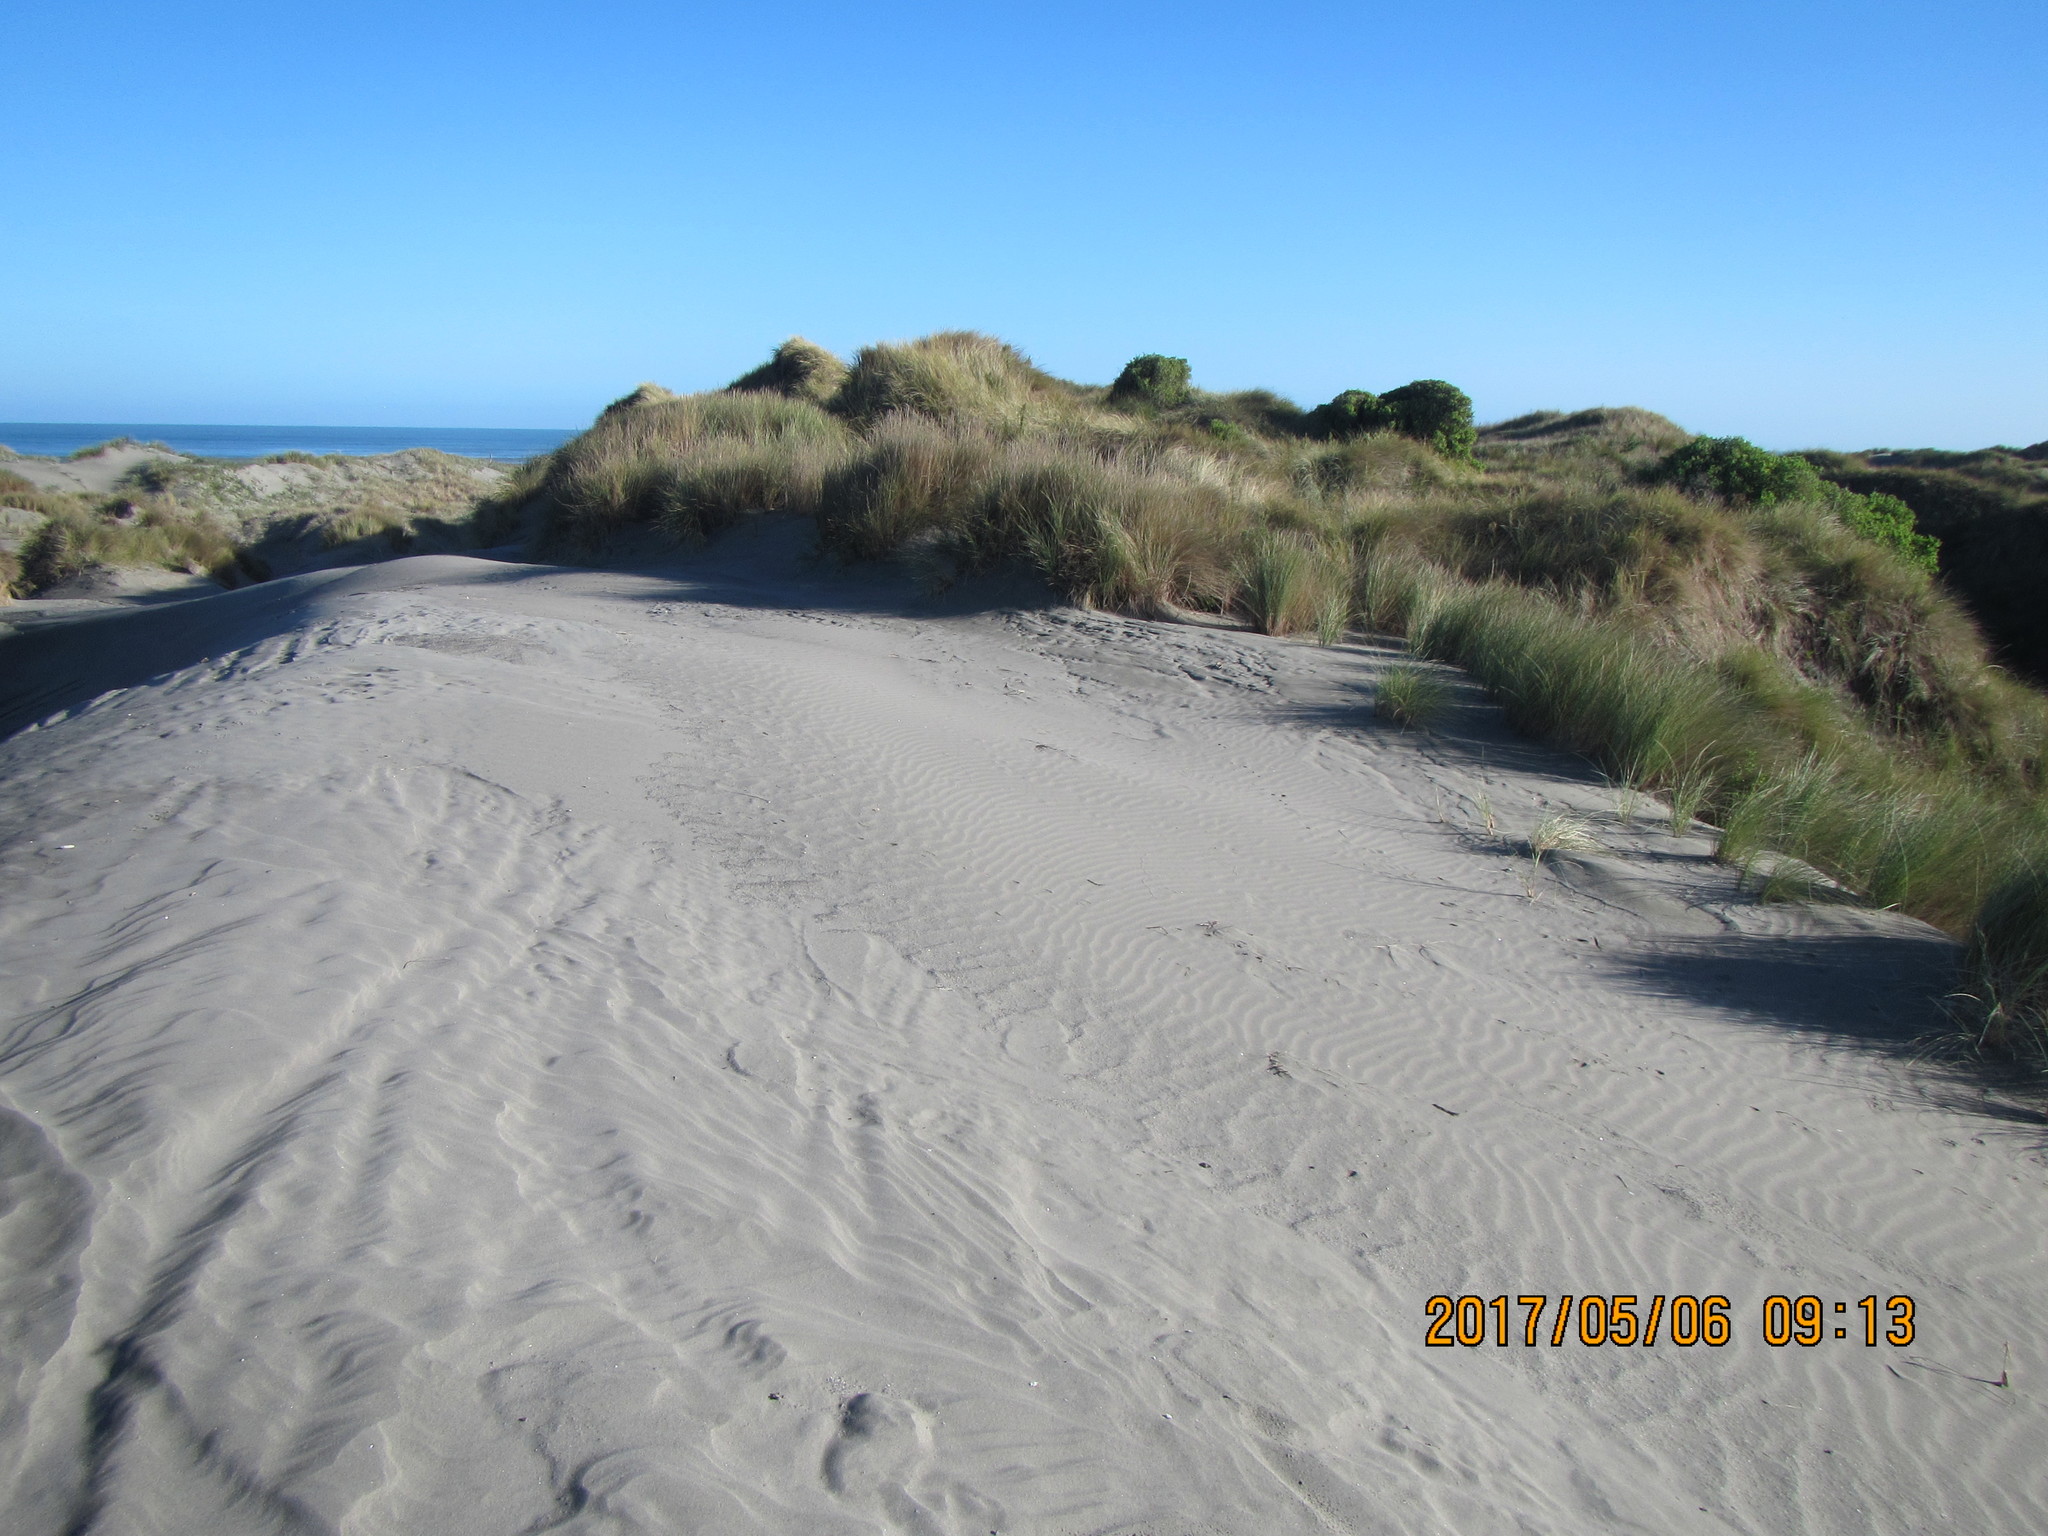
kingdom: Plantae
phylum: Tracheophyta
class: Magnoliopsida
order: Solanales
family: Solanaceae
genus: Lycium
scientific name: Lycium ferocissimum
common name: African boxthorn
